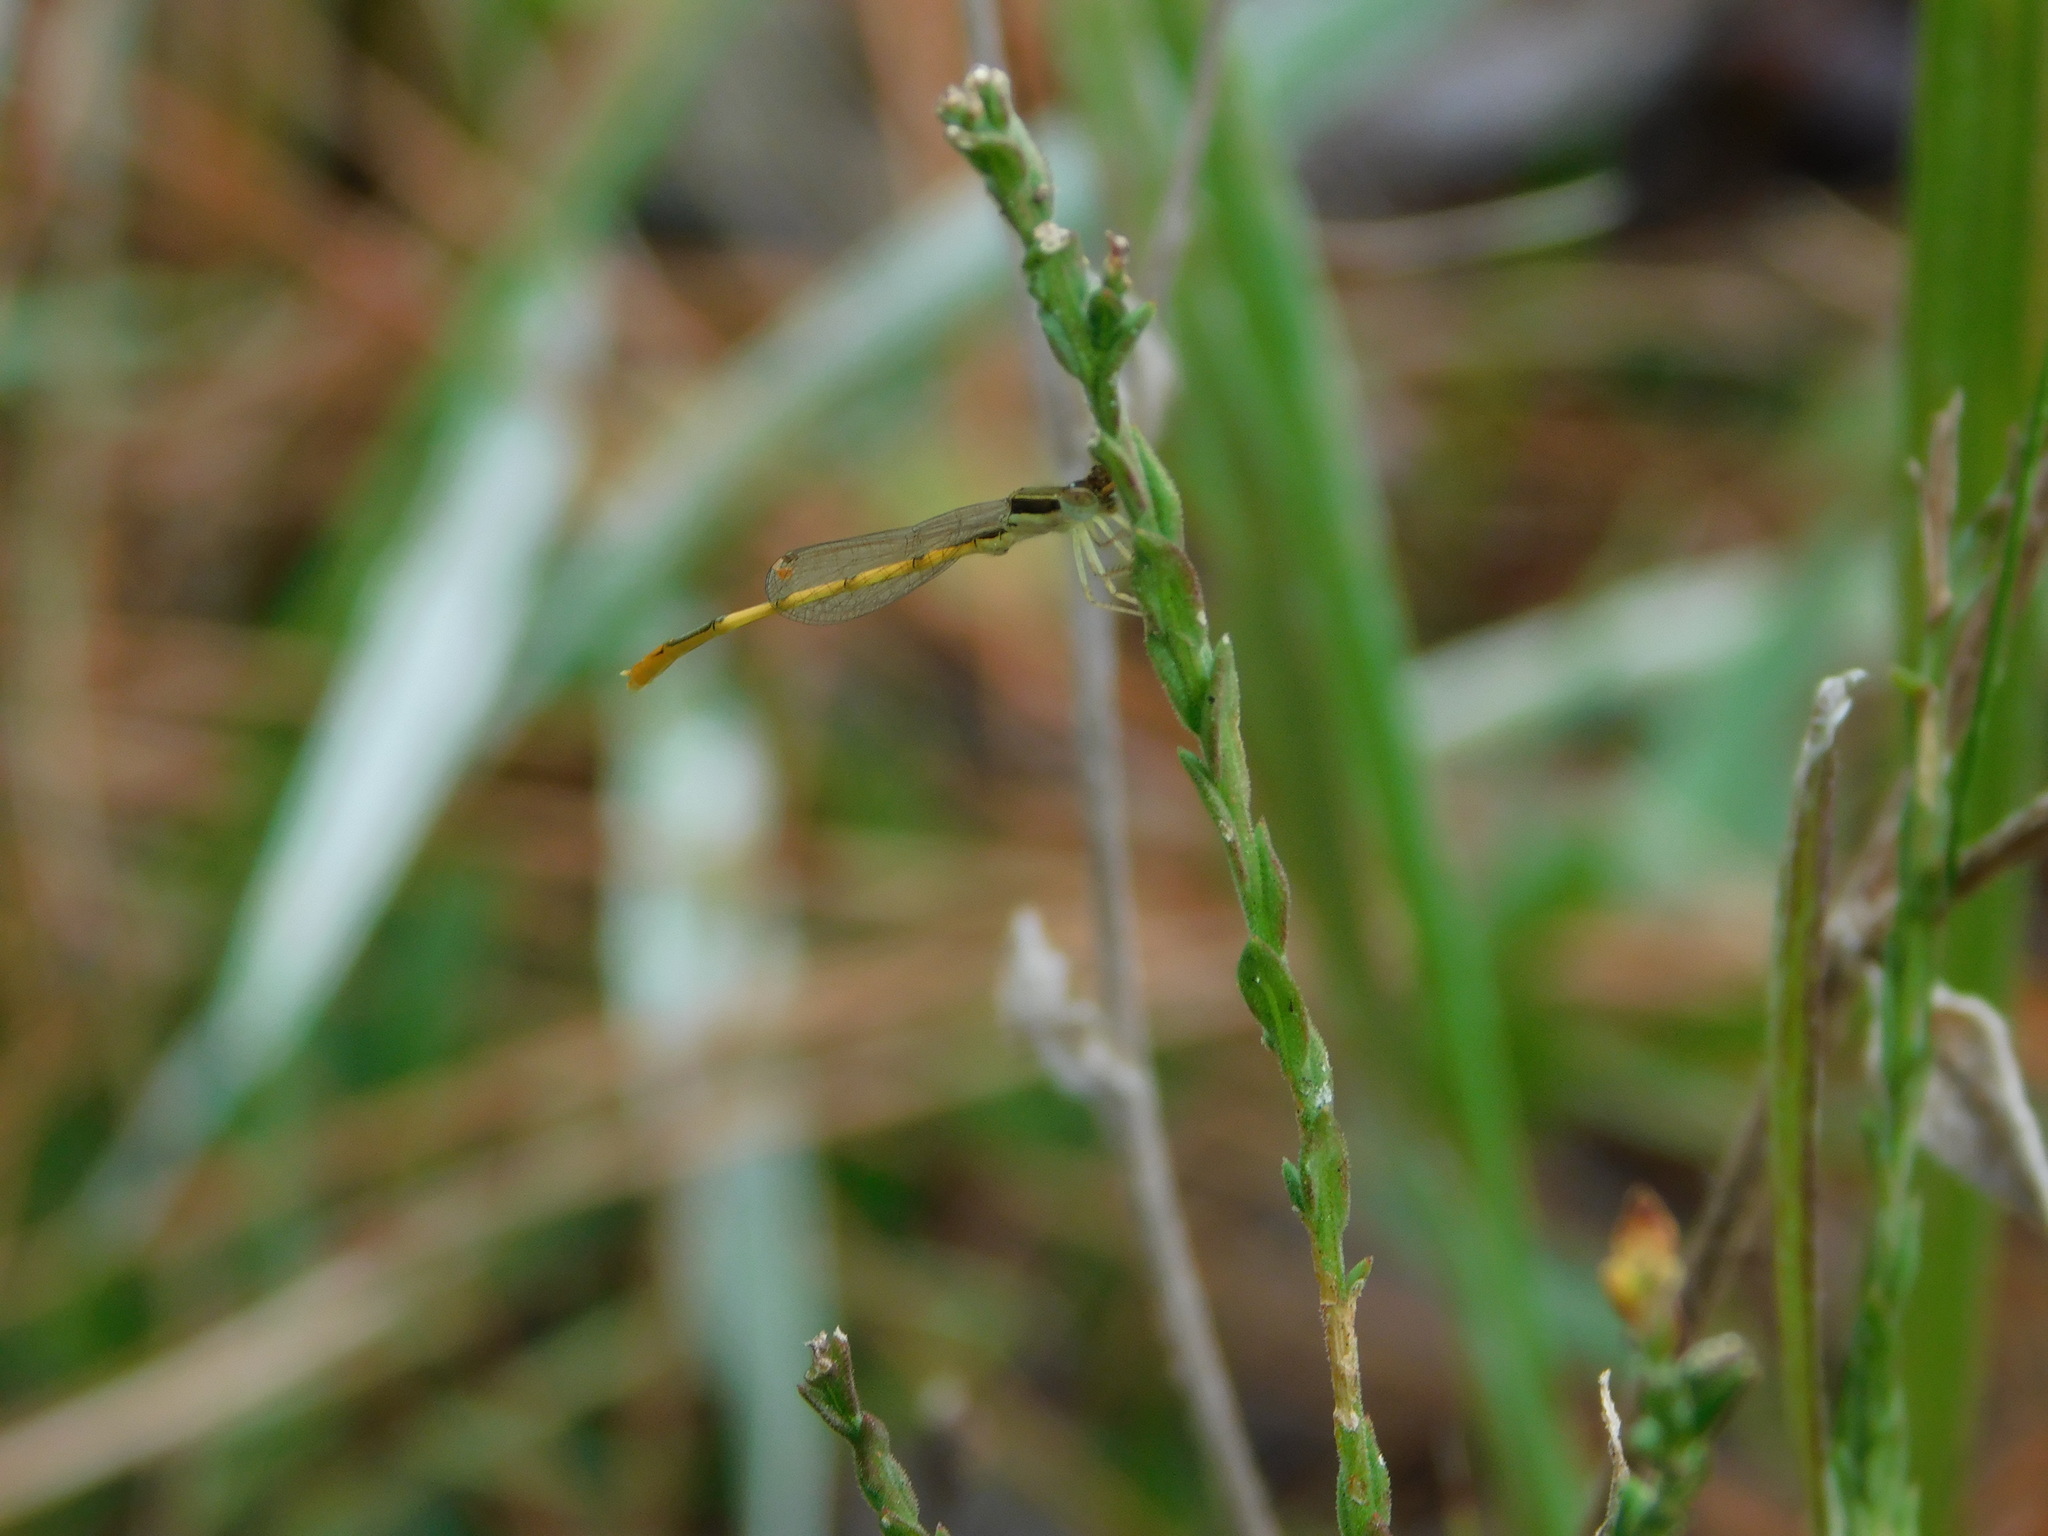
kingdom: Animalia
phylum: Arthropoda
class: Insecta
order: Odonata
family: Coenagrionidae
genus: Ischnura
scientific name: Ischnura hastata
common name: Citrine forktail
